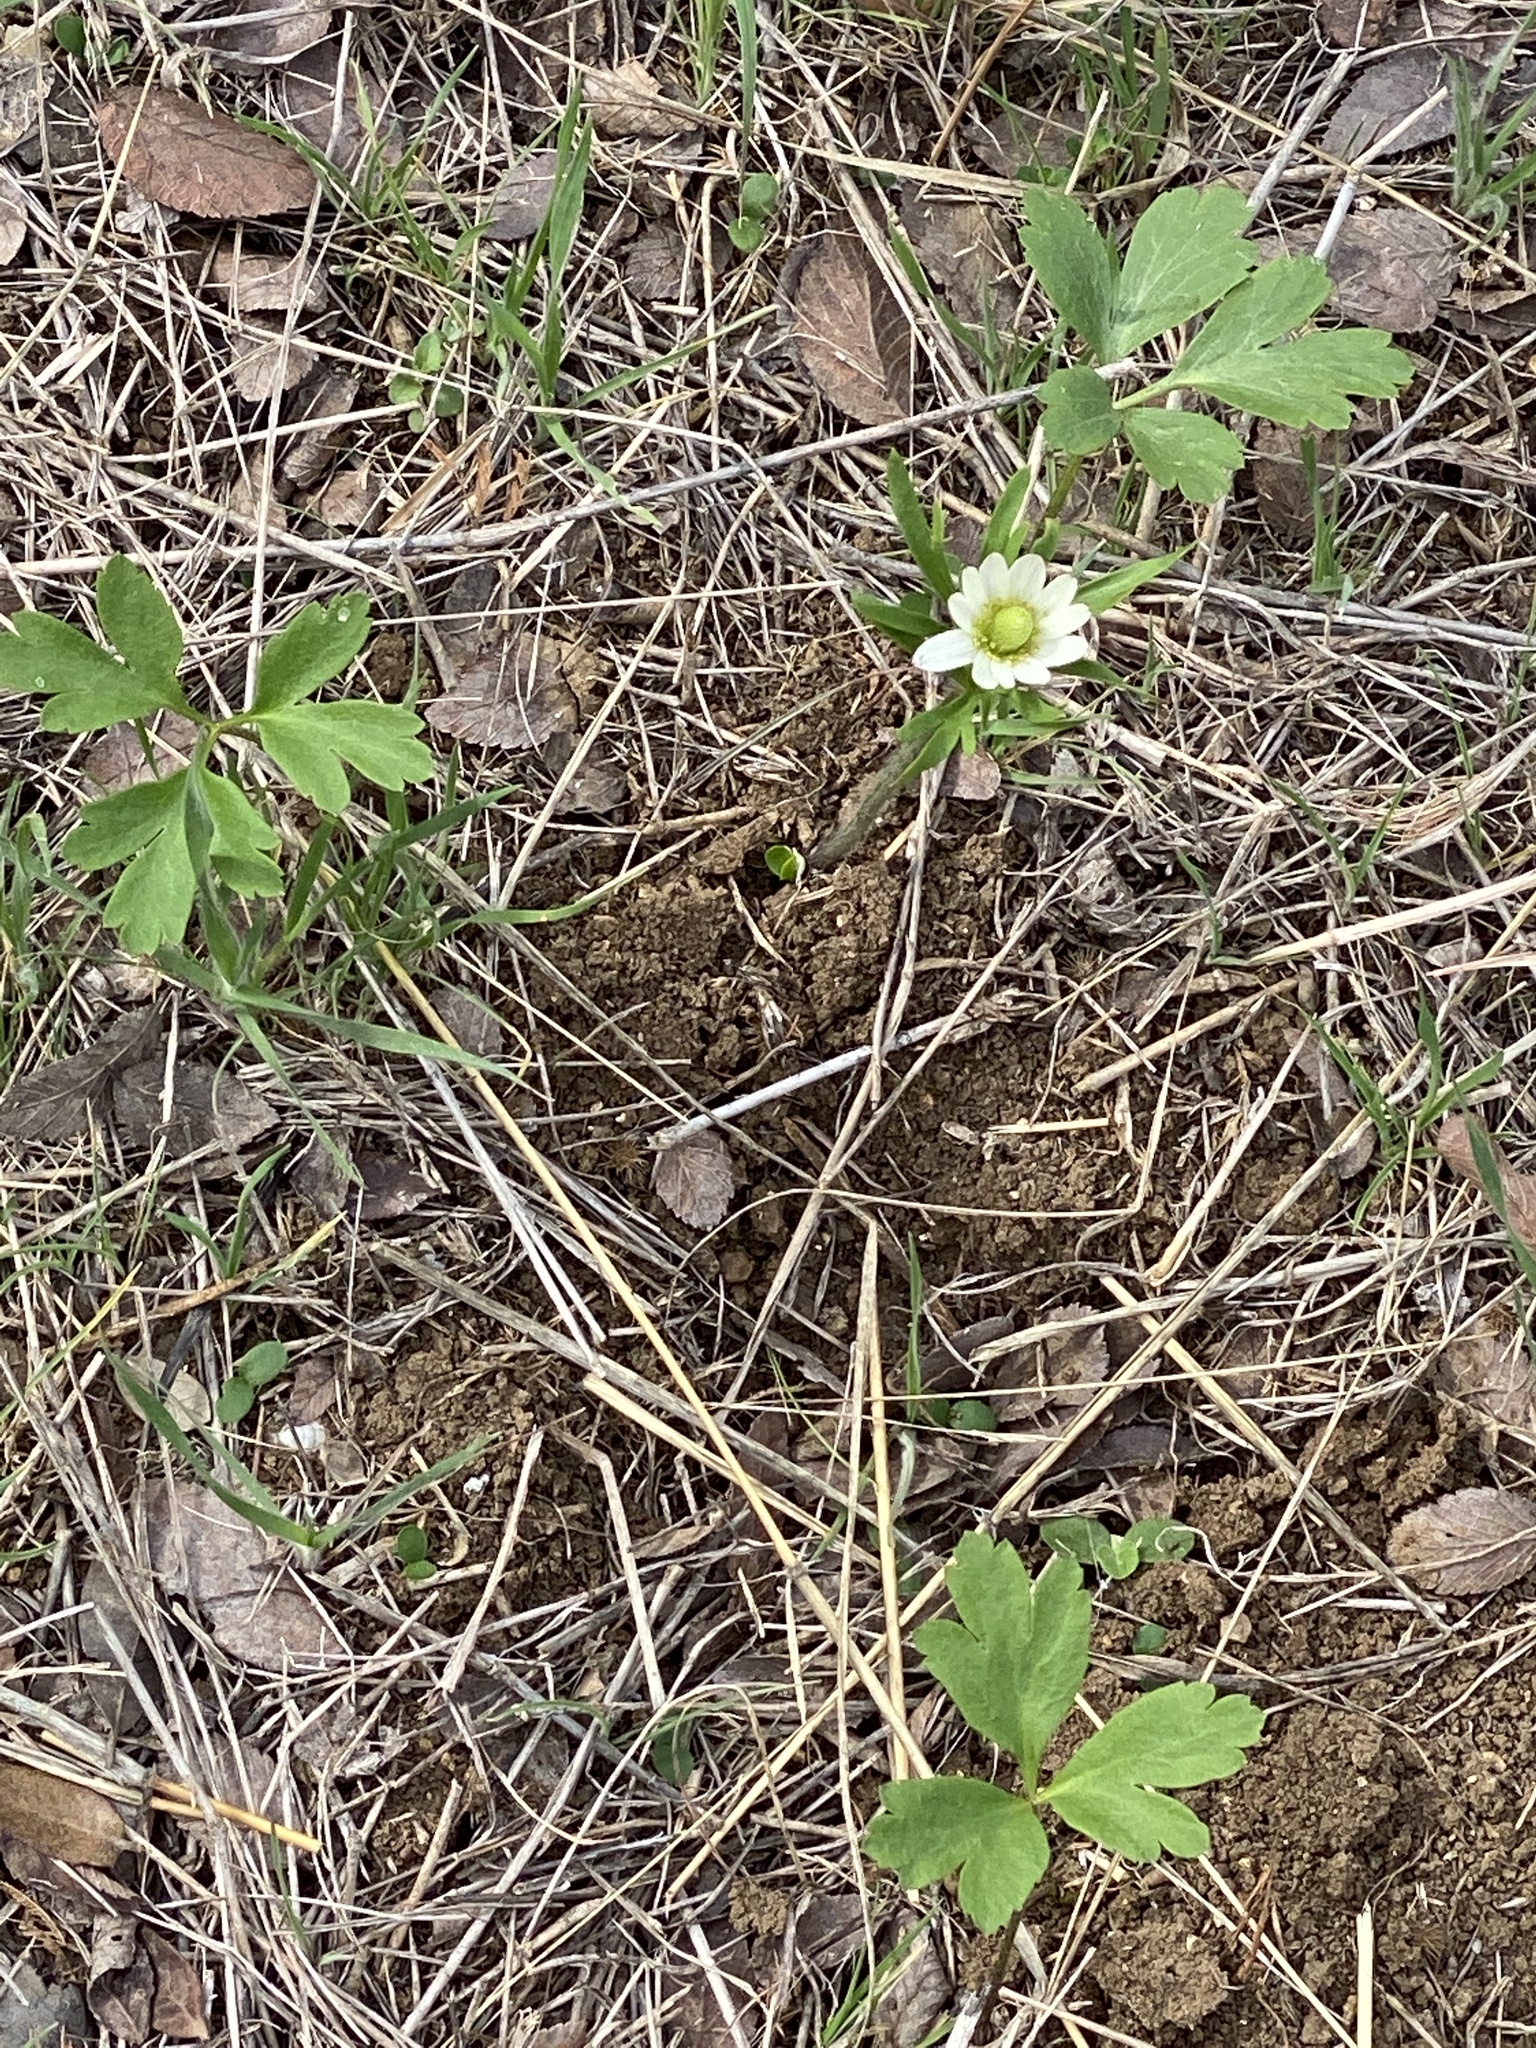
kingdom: Plantae
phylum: Tracheophyta
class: Magnoliopsida
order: Ranunculales
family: Ranunculaceae
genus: Anemone
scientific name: Anemone berlandieri
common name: Ten-petal anemone
